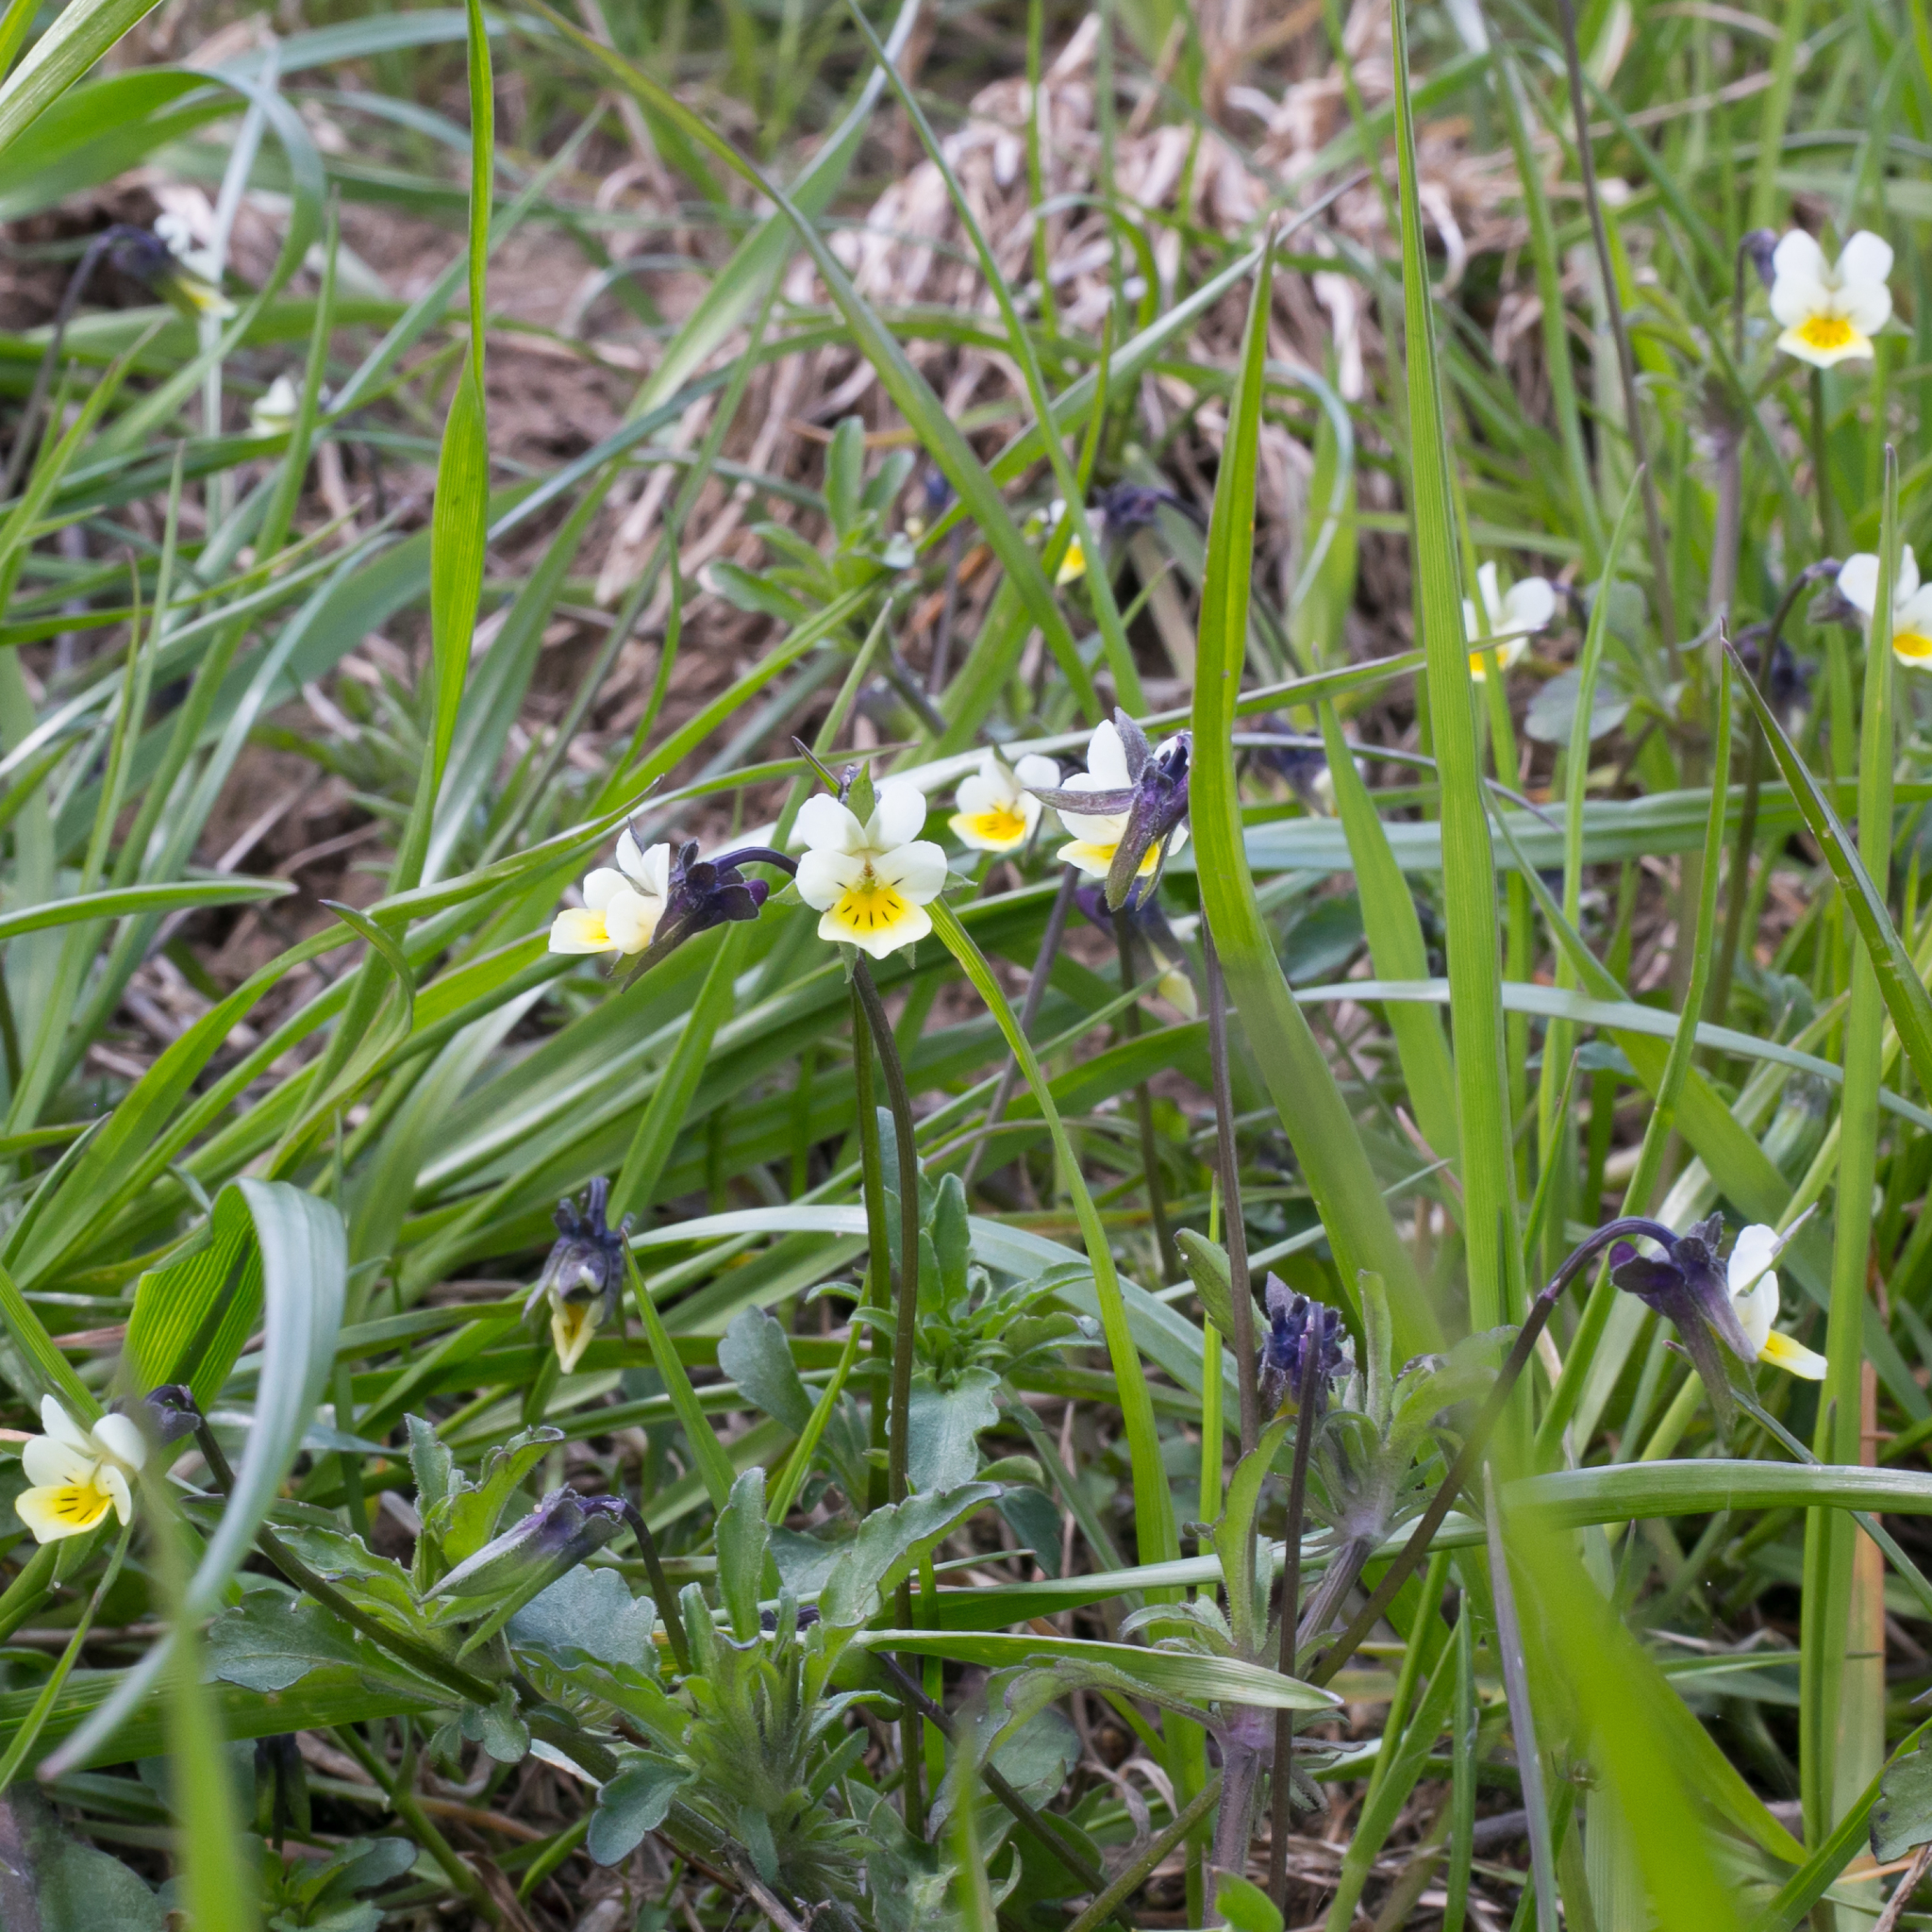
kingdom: Plantae
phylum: Tracheophyta
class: Magnoliopsida
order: Malpighiales
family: Violaceae
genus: Viola
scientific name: Viola arvensis
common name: Field pansy
